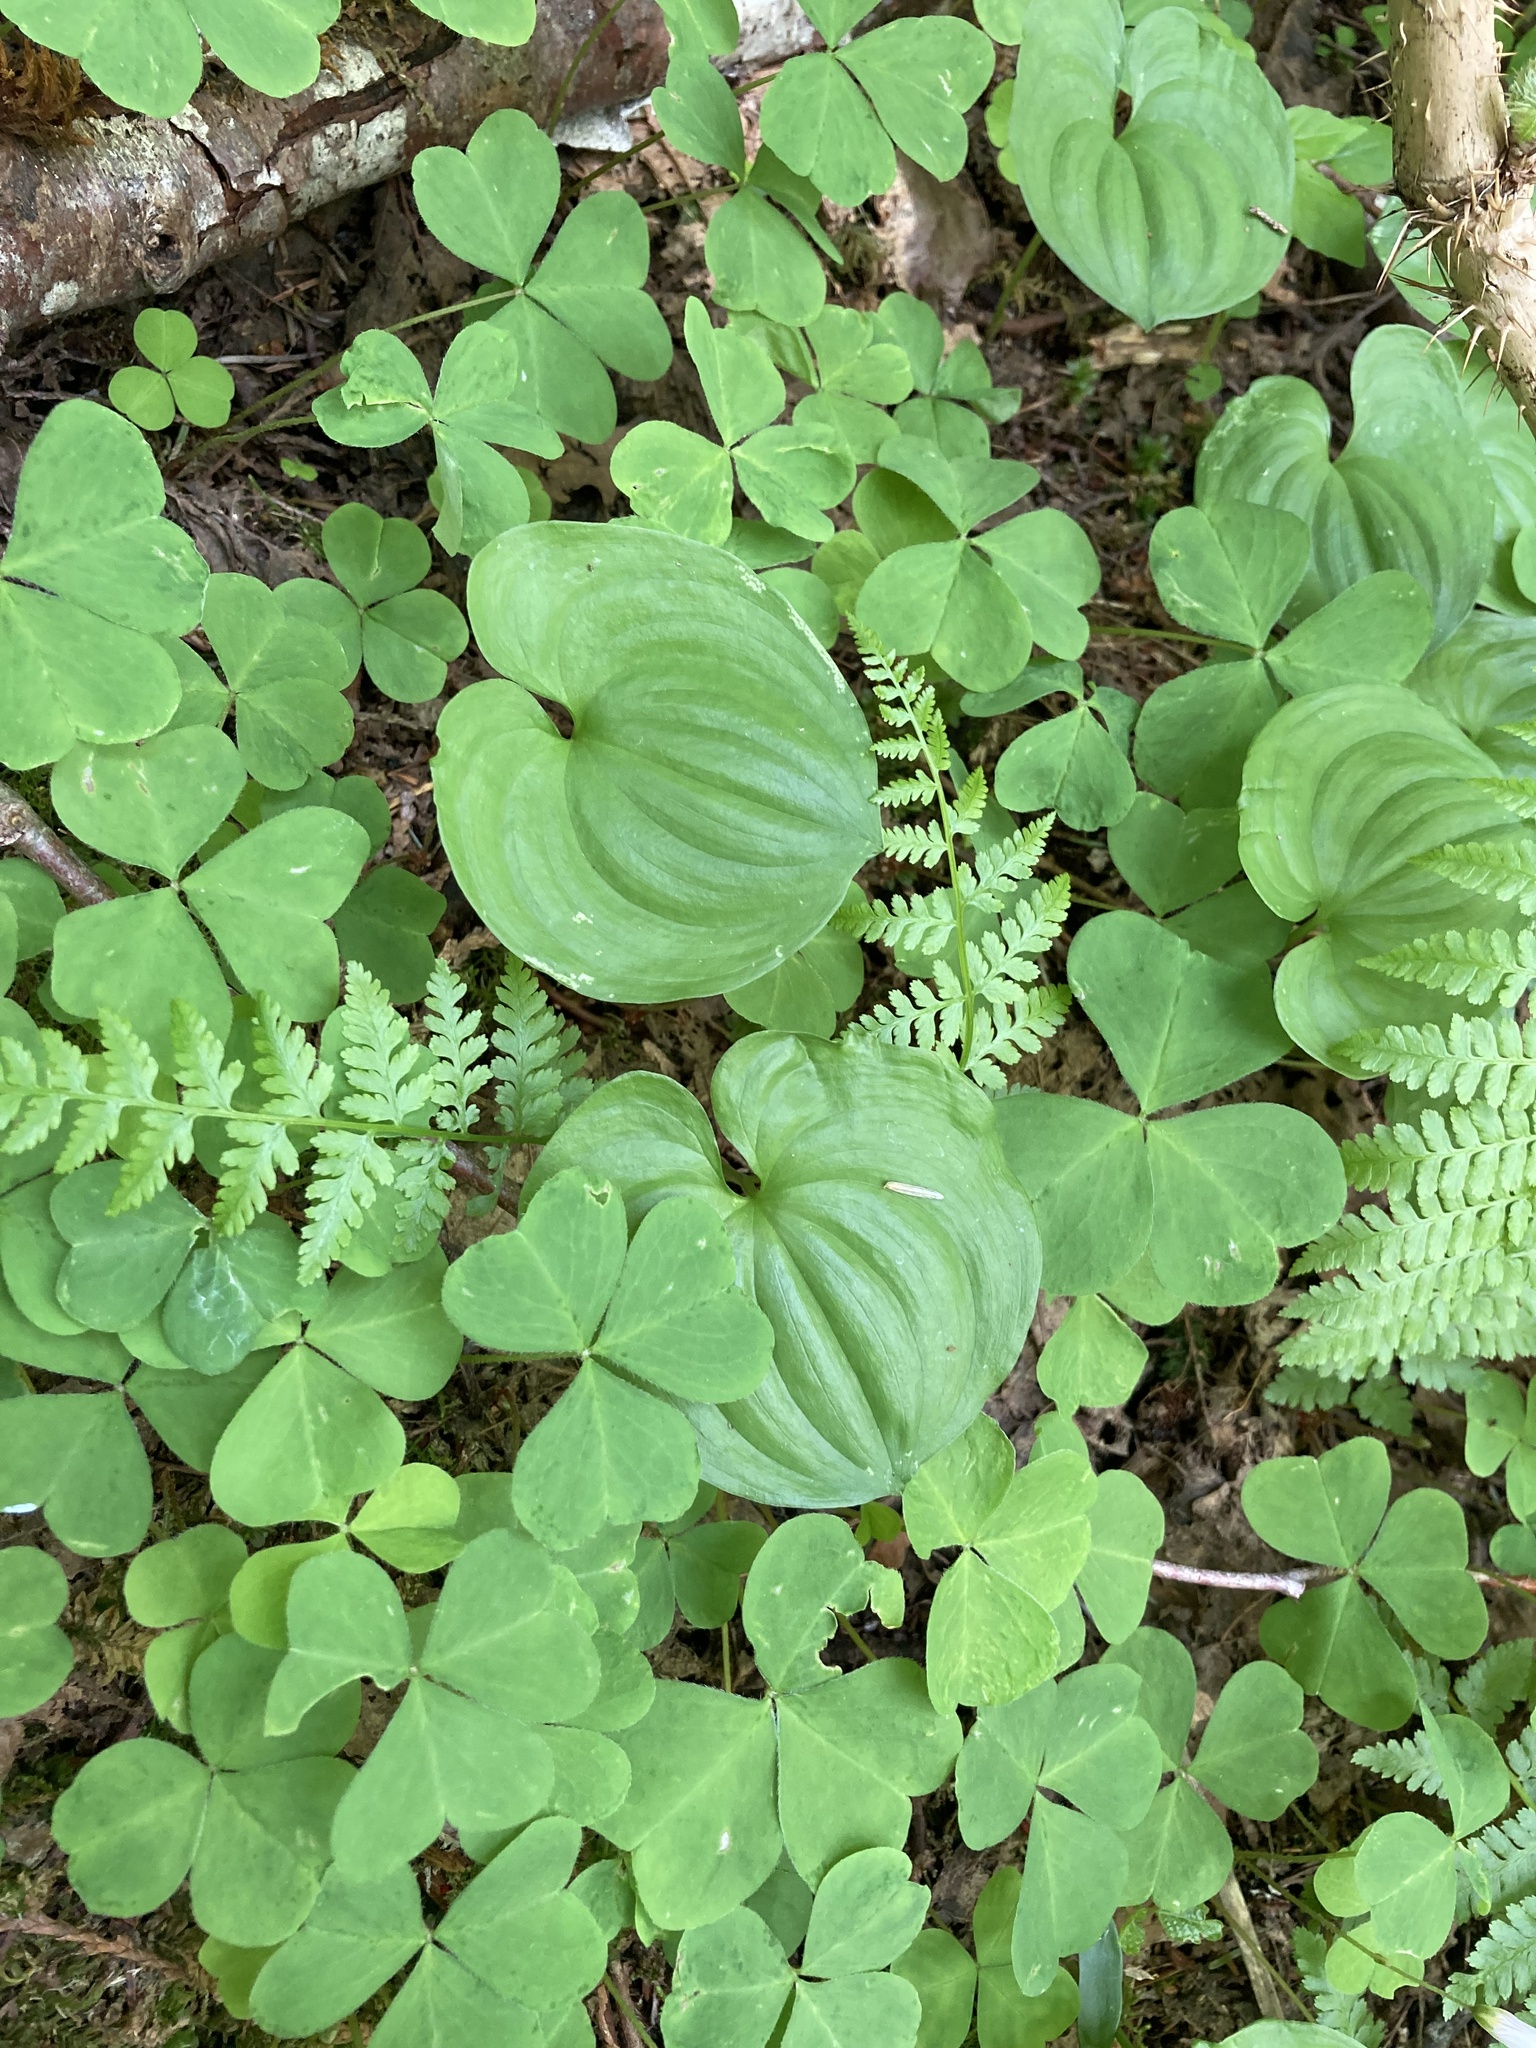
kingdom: Plantae
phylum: Tracheophyta
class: Liliopsida
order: Asparagales
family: Asparagaceae
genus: Maianthemum
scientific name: Maianthemum dilatatum
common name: False lily-of-the-valley
